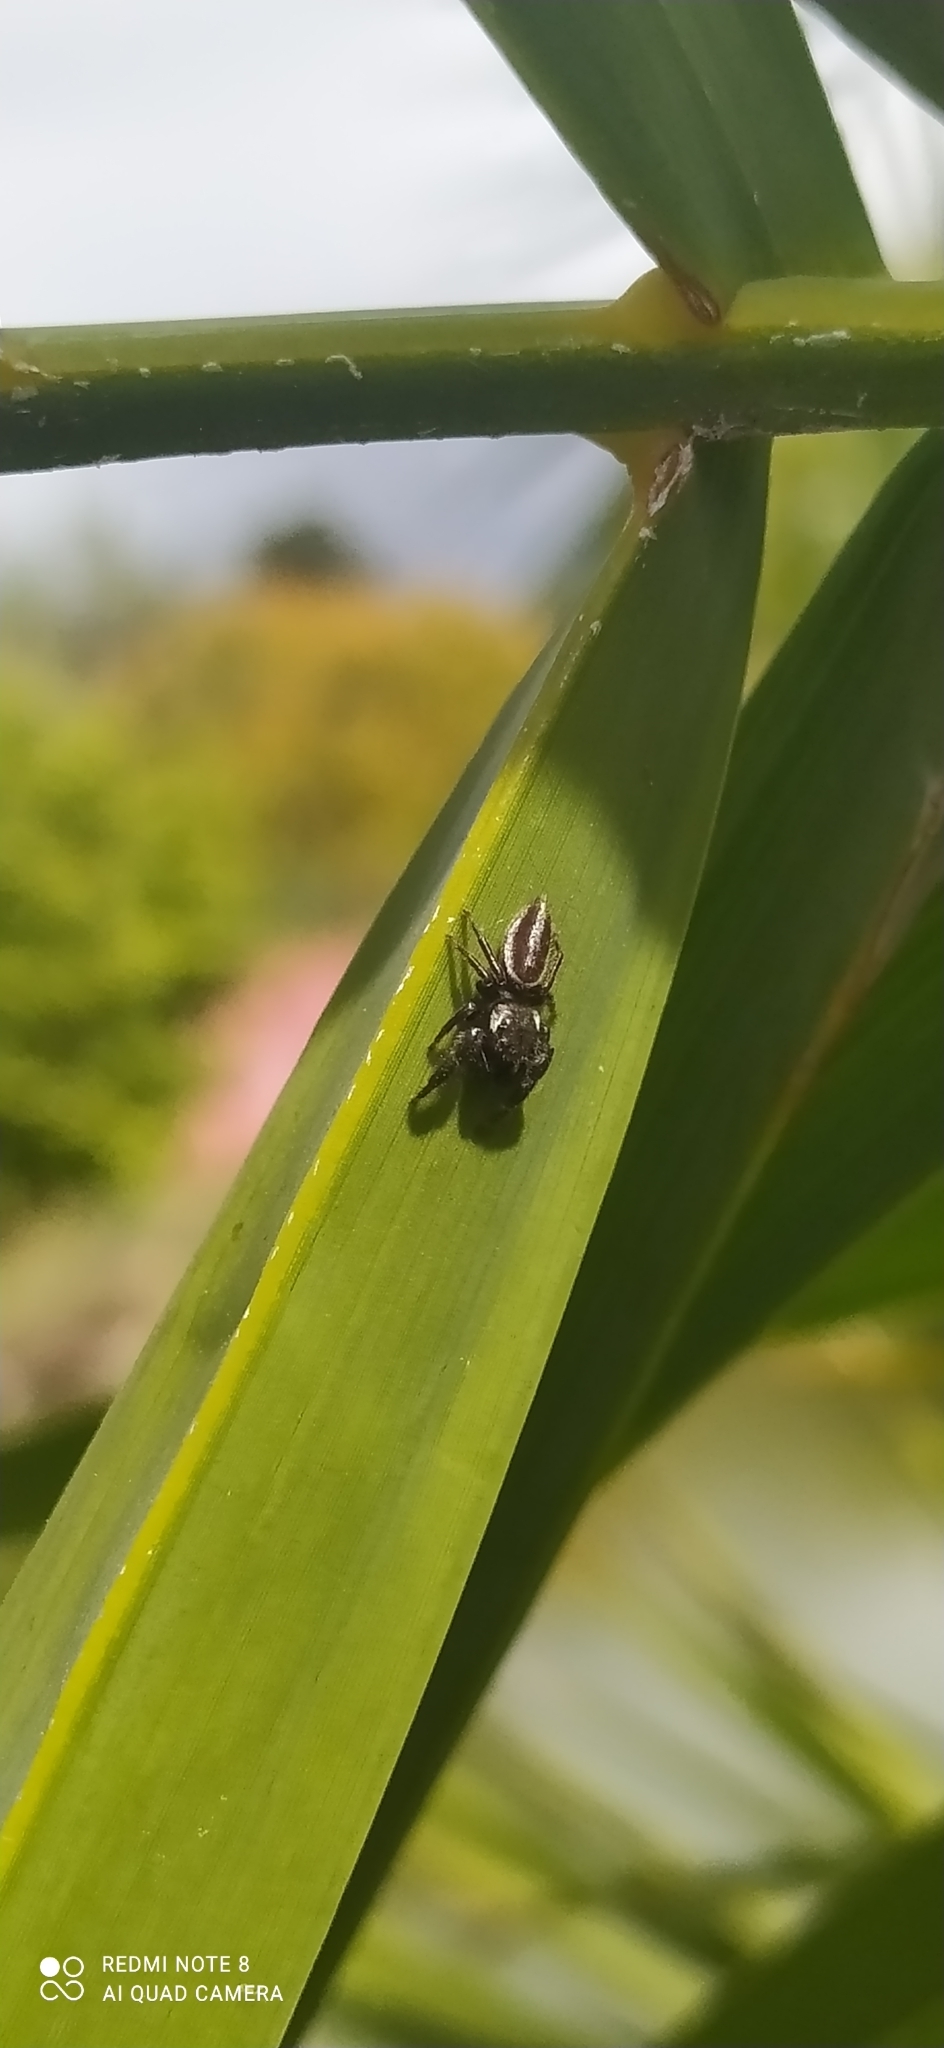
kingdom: Animalia
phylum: Arthropoda
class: Arachnida
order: Araneae
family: Salticidae
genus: Dendryphantes
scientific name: Dendryphantes mordax
